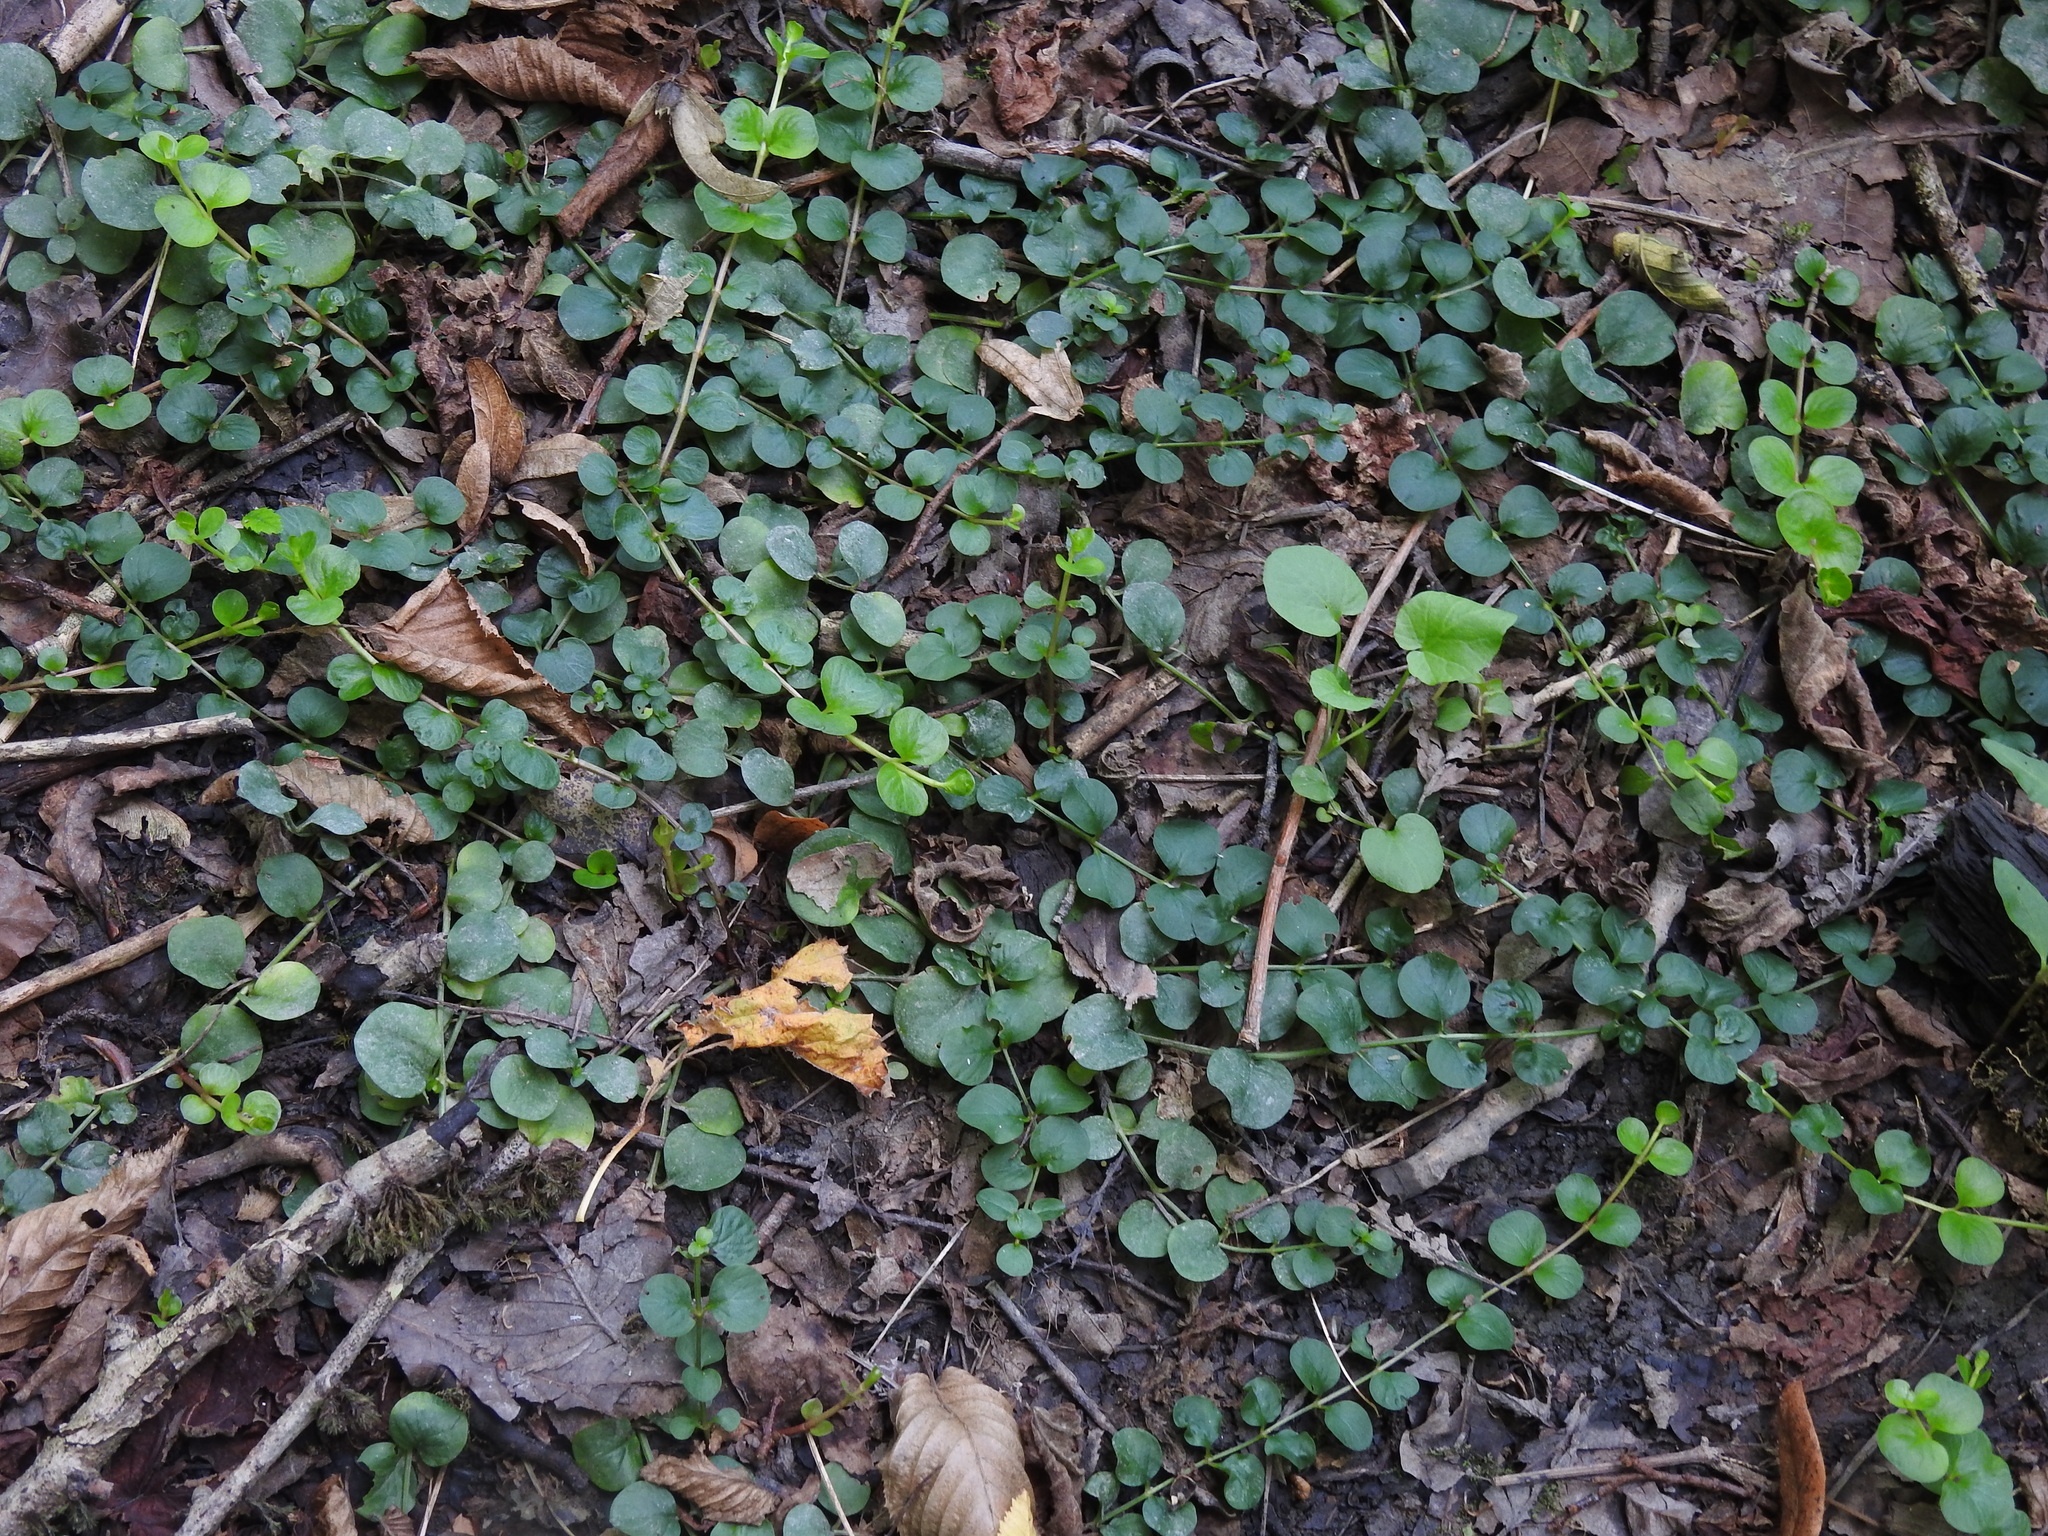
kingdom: Plantae
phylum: Tracheophyta
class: Magnoliopsida
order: Ericales
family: Primulaceae
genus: Lysimachia
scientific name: Lysimachia nummularia
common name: Moneywort
